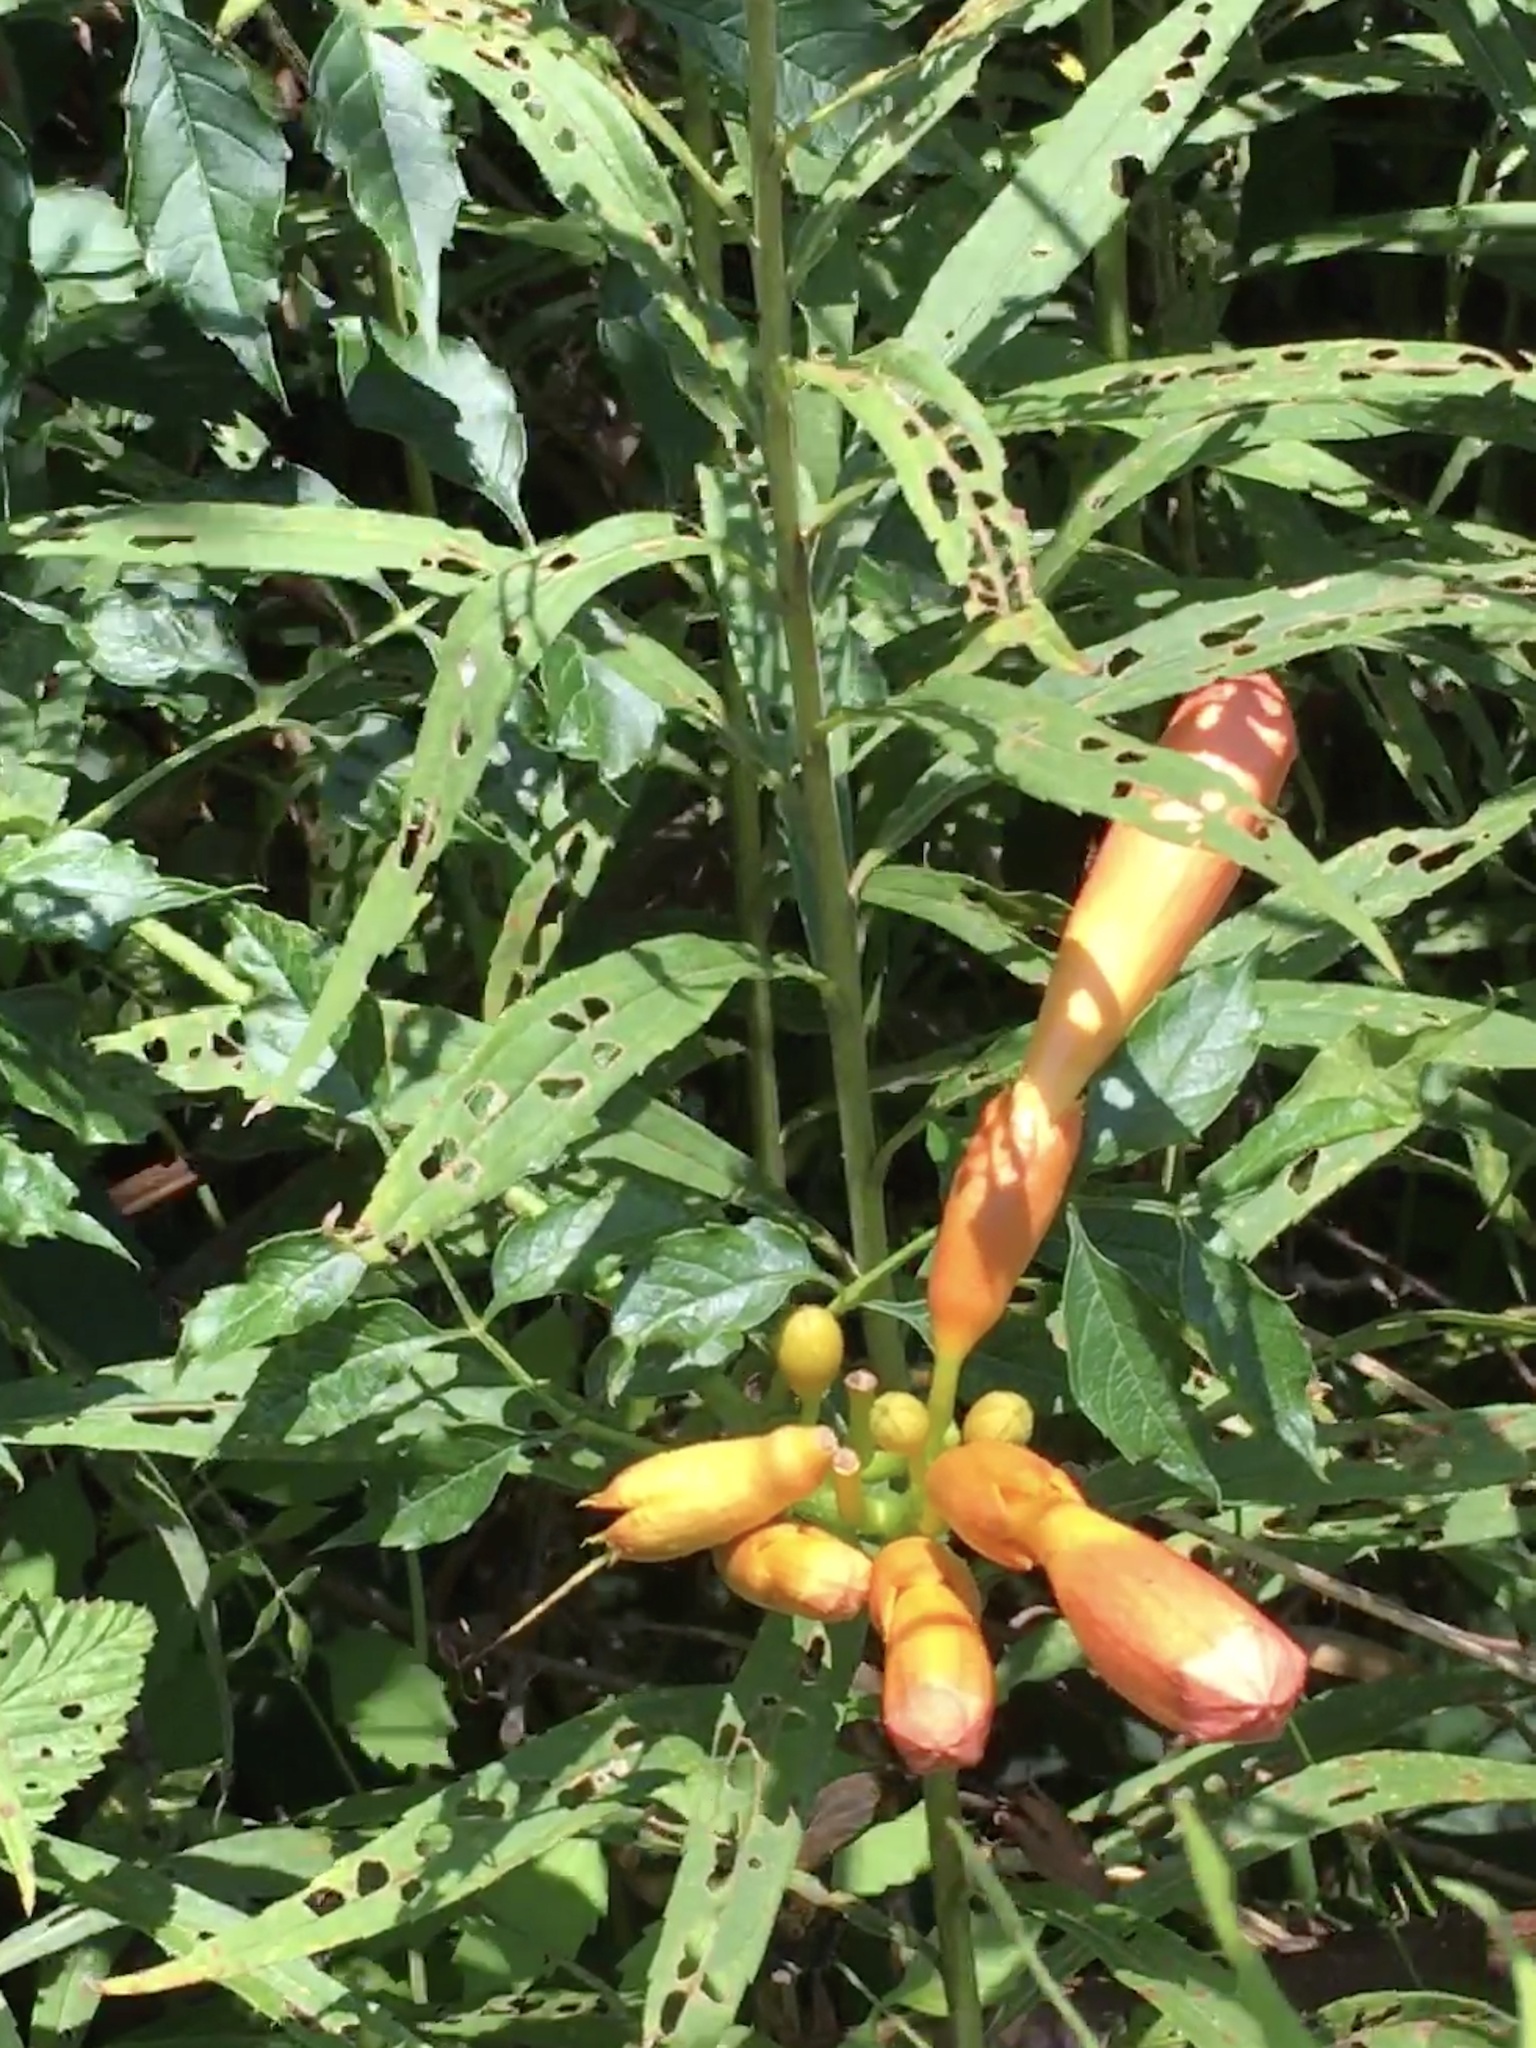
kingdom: Plantae
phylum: Tracheophyta
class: Magnoliopsida
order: Lamiales
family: Bignoniaceae
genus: Campsis
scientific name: Campsis radicans
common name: Trumpet-creeper
